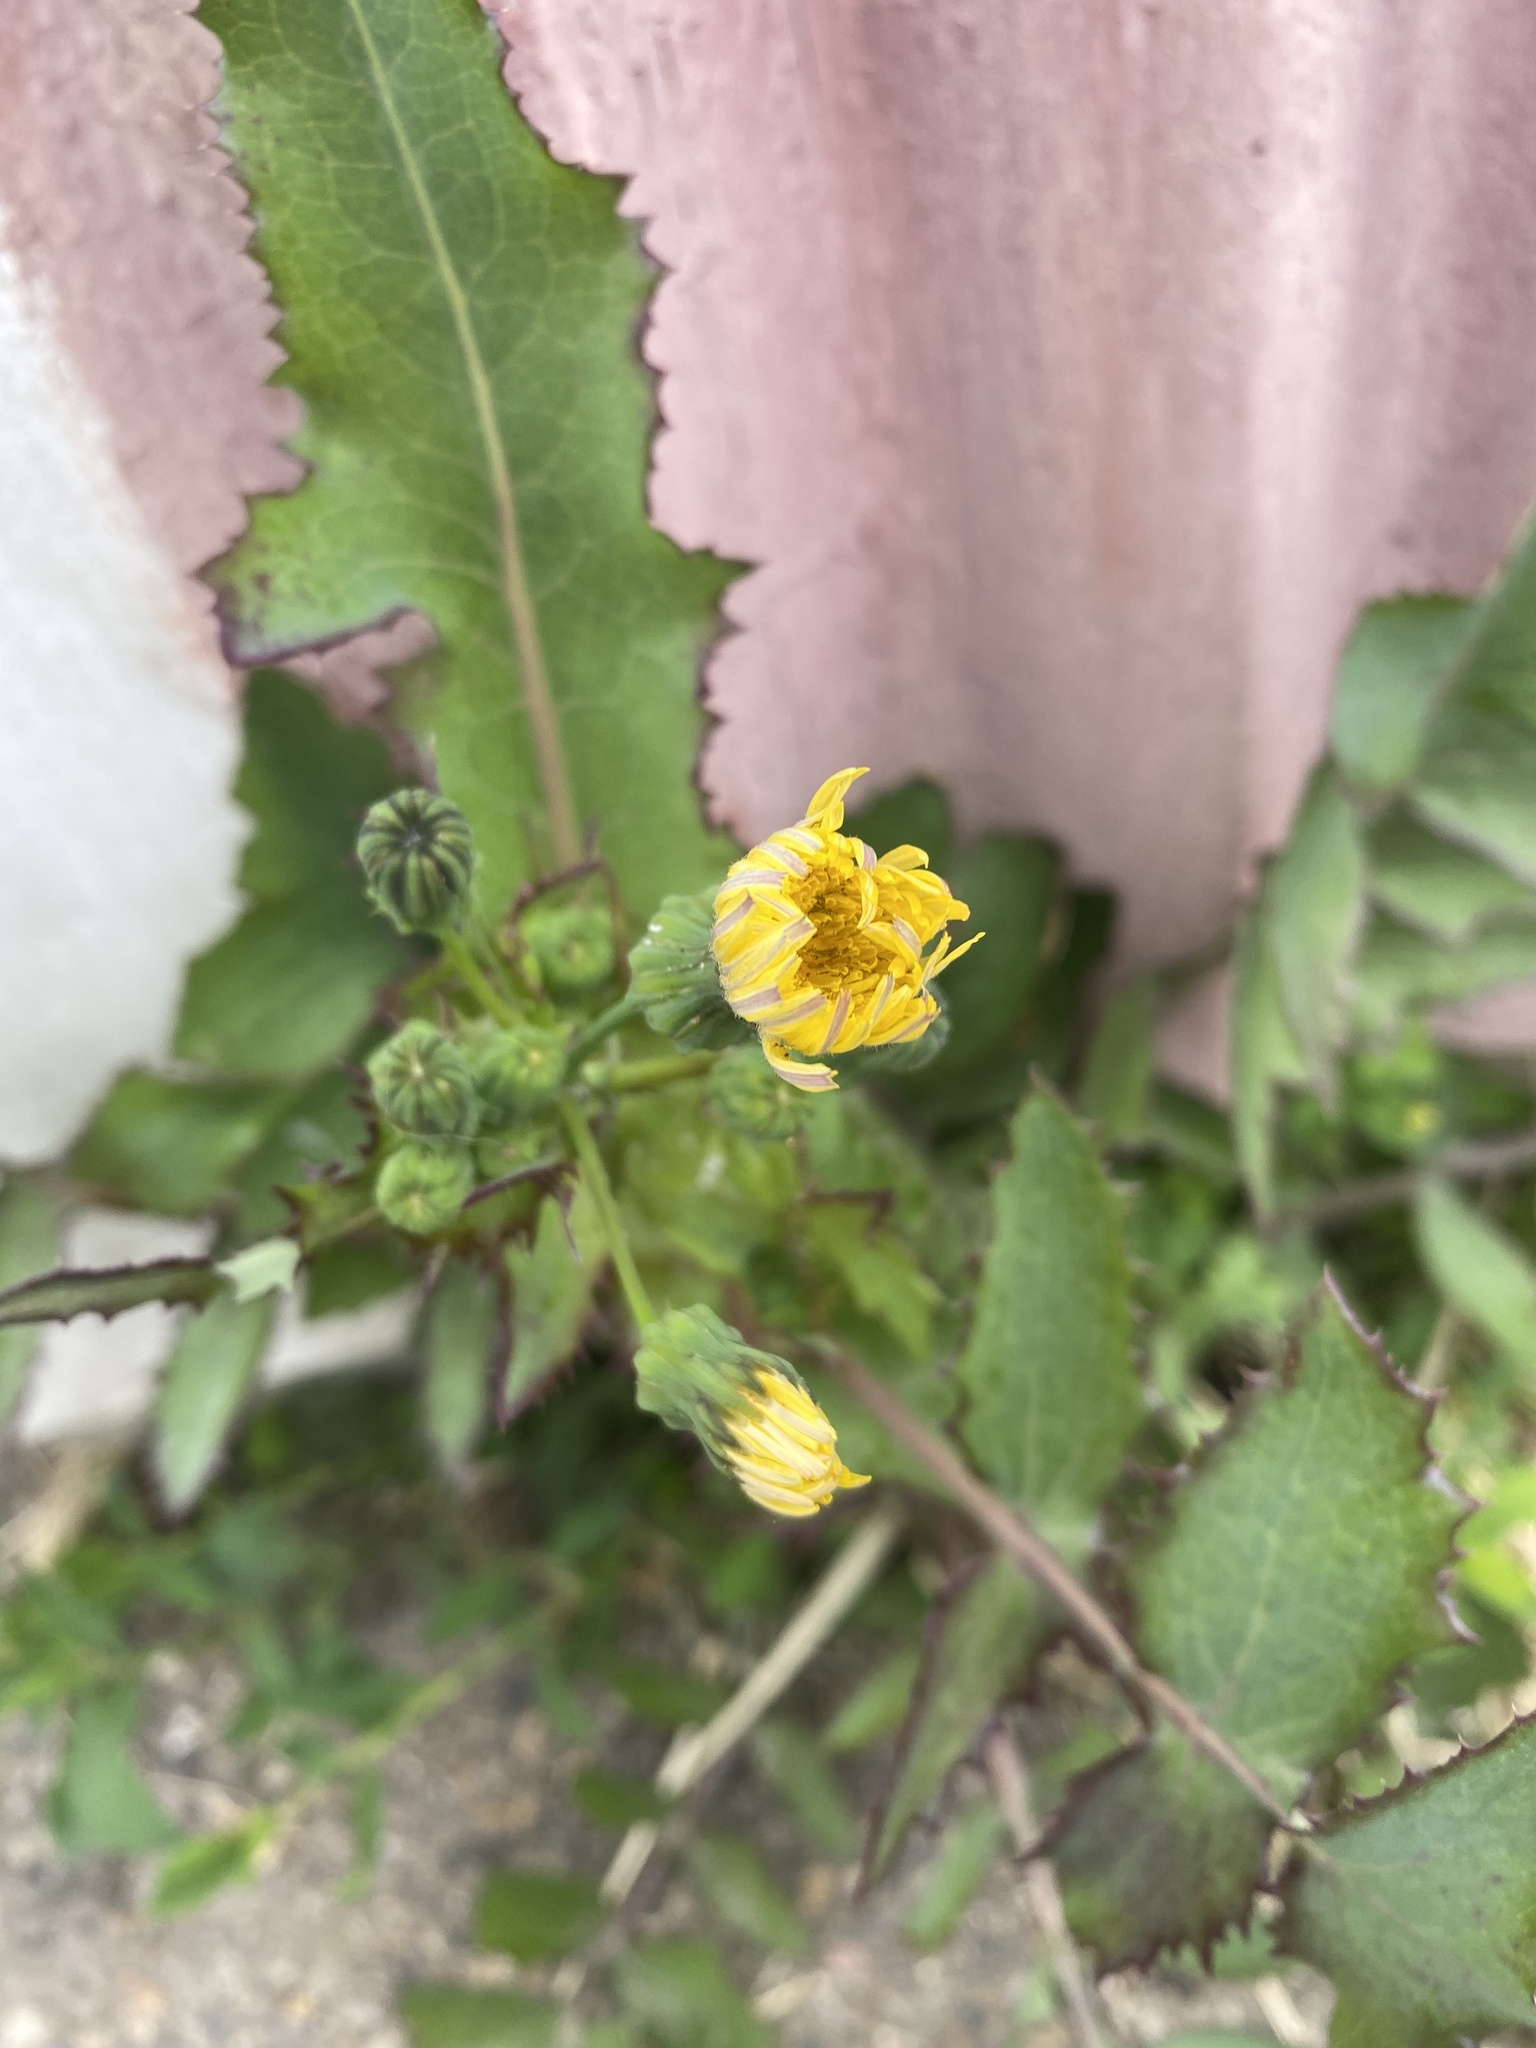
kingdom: Plantae
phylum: Tracheophyta
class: Magnoliopsida
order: Asterales
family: Asteraceae
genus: Sonchus
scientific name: Sonchus oleraceus
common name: Common sowthistle
